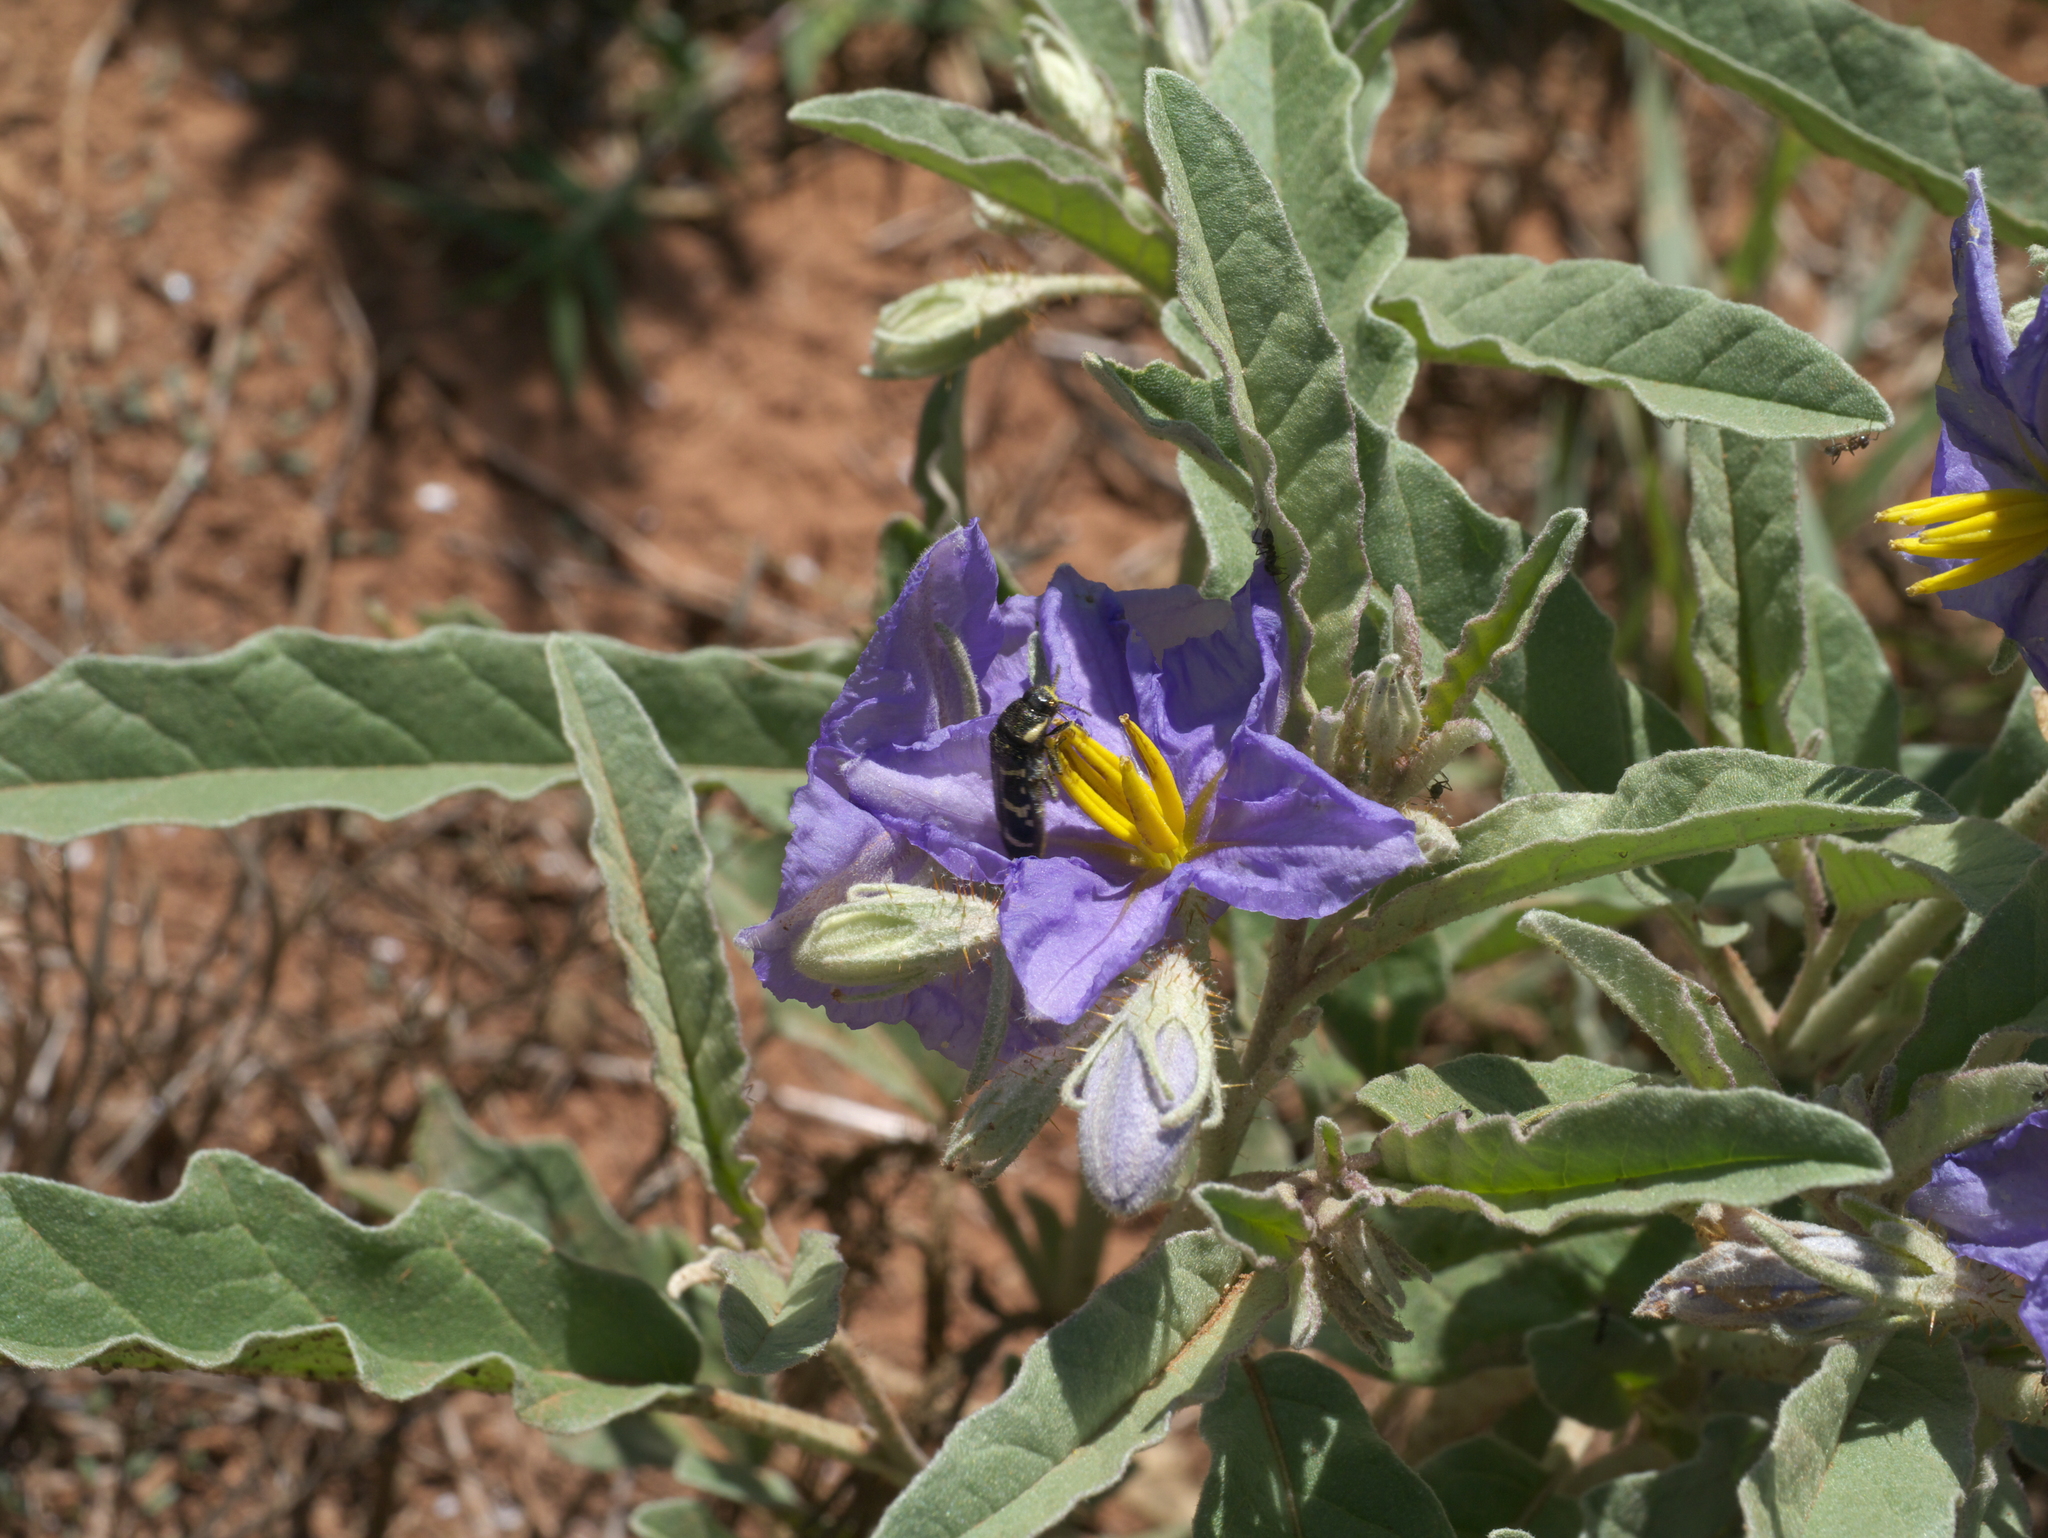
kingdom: Plantae
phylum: Tracheophyta
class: Magnoliopsida
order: Solanales
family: Solanaceae
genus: Solanum
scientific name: Solanum elaeagnifolium
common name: Silverleaf nightshade
